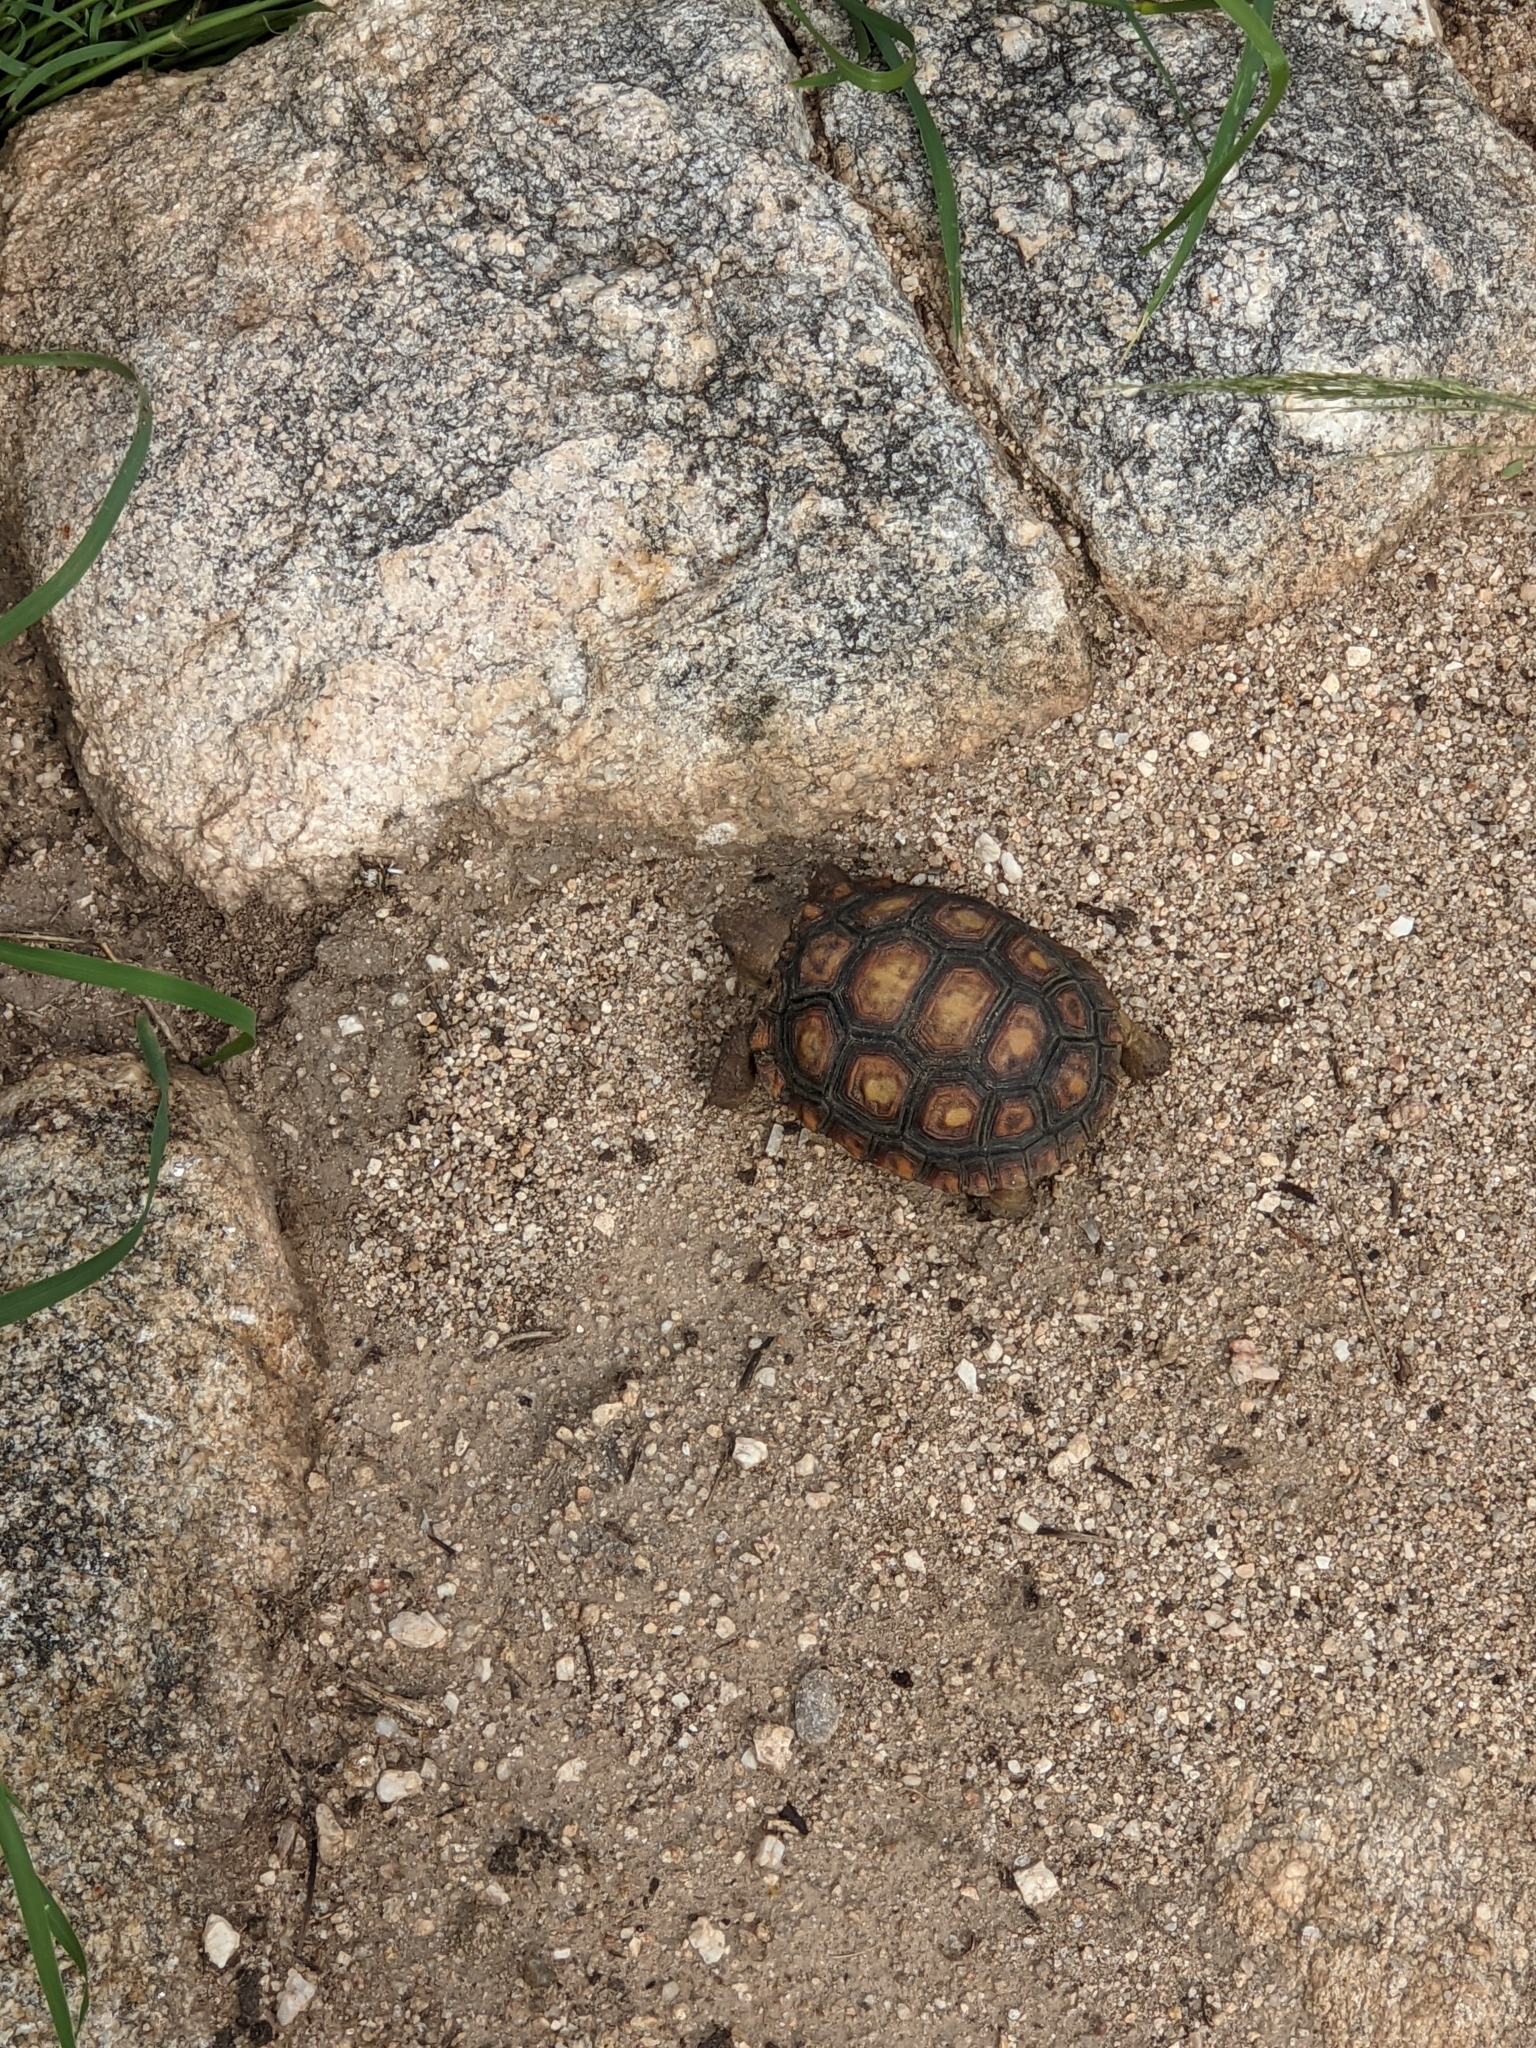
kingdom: Animalia
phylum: Chordata
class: Testudines
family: Testudinidae
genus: Gopherus
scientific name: Gopherus morafkai
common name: Sonoran desert tortoise
